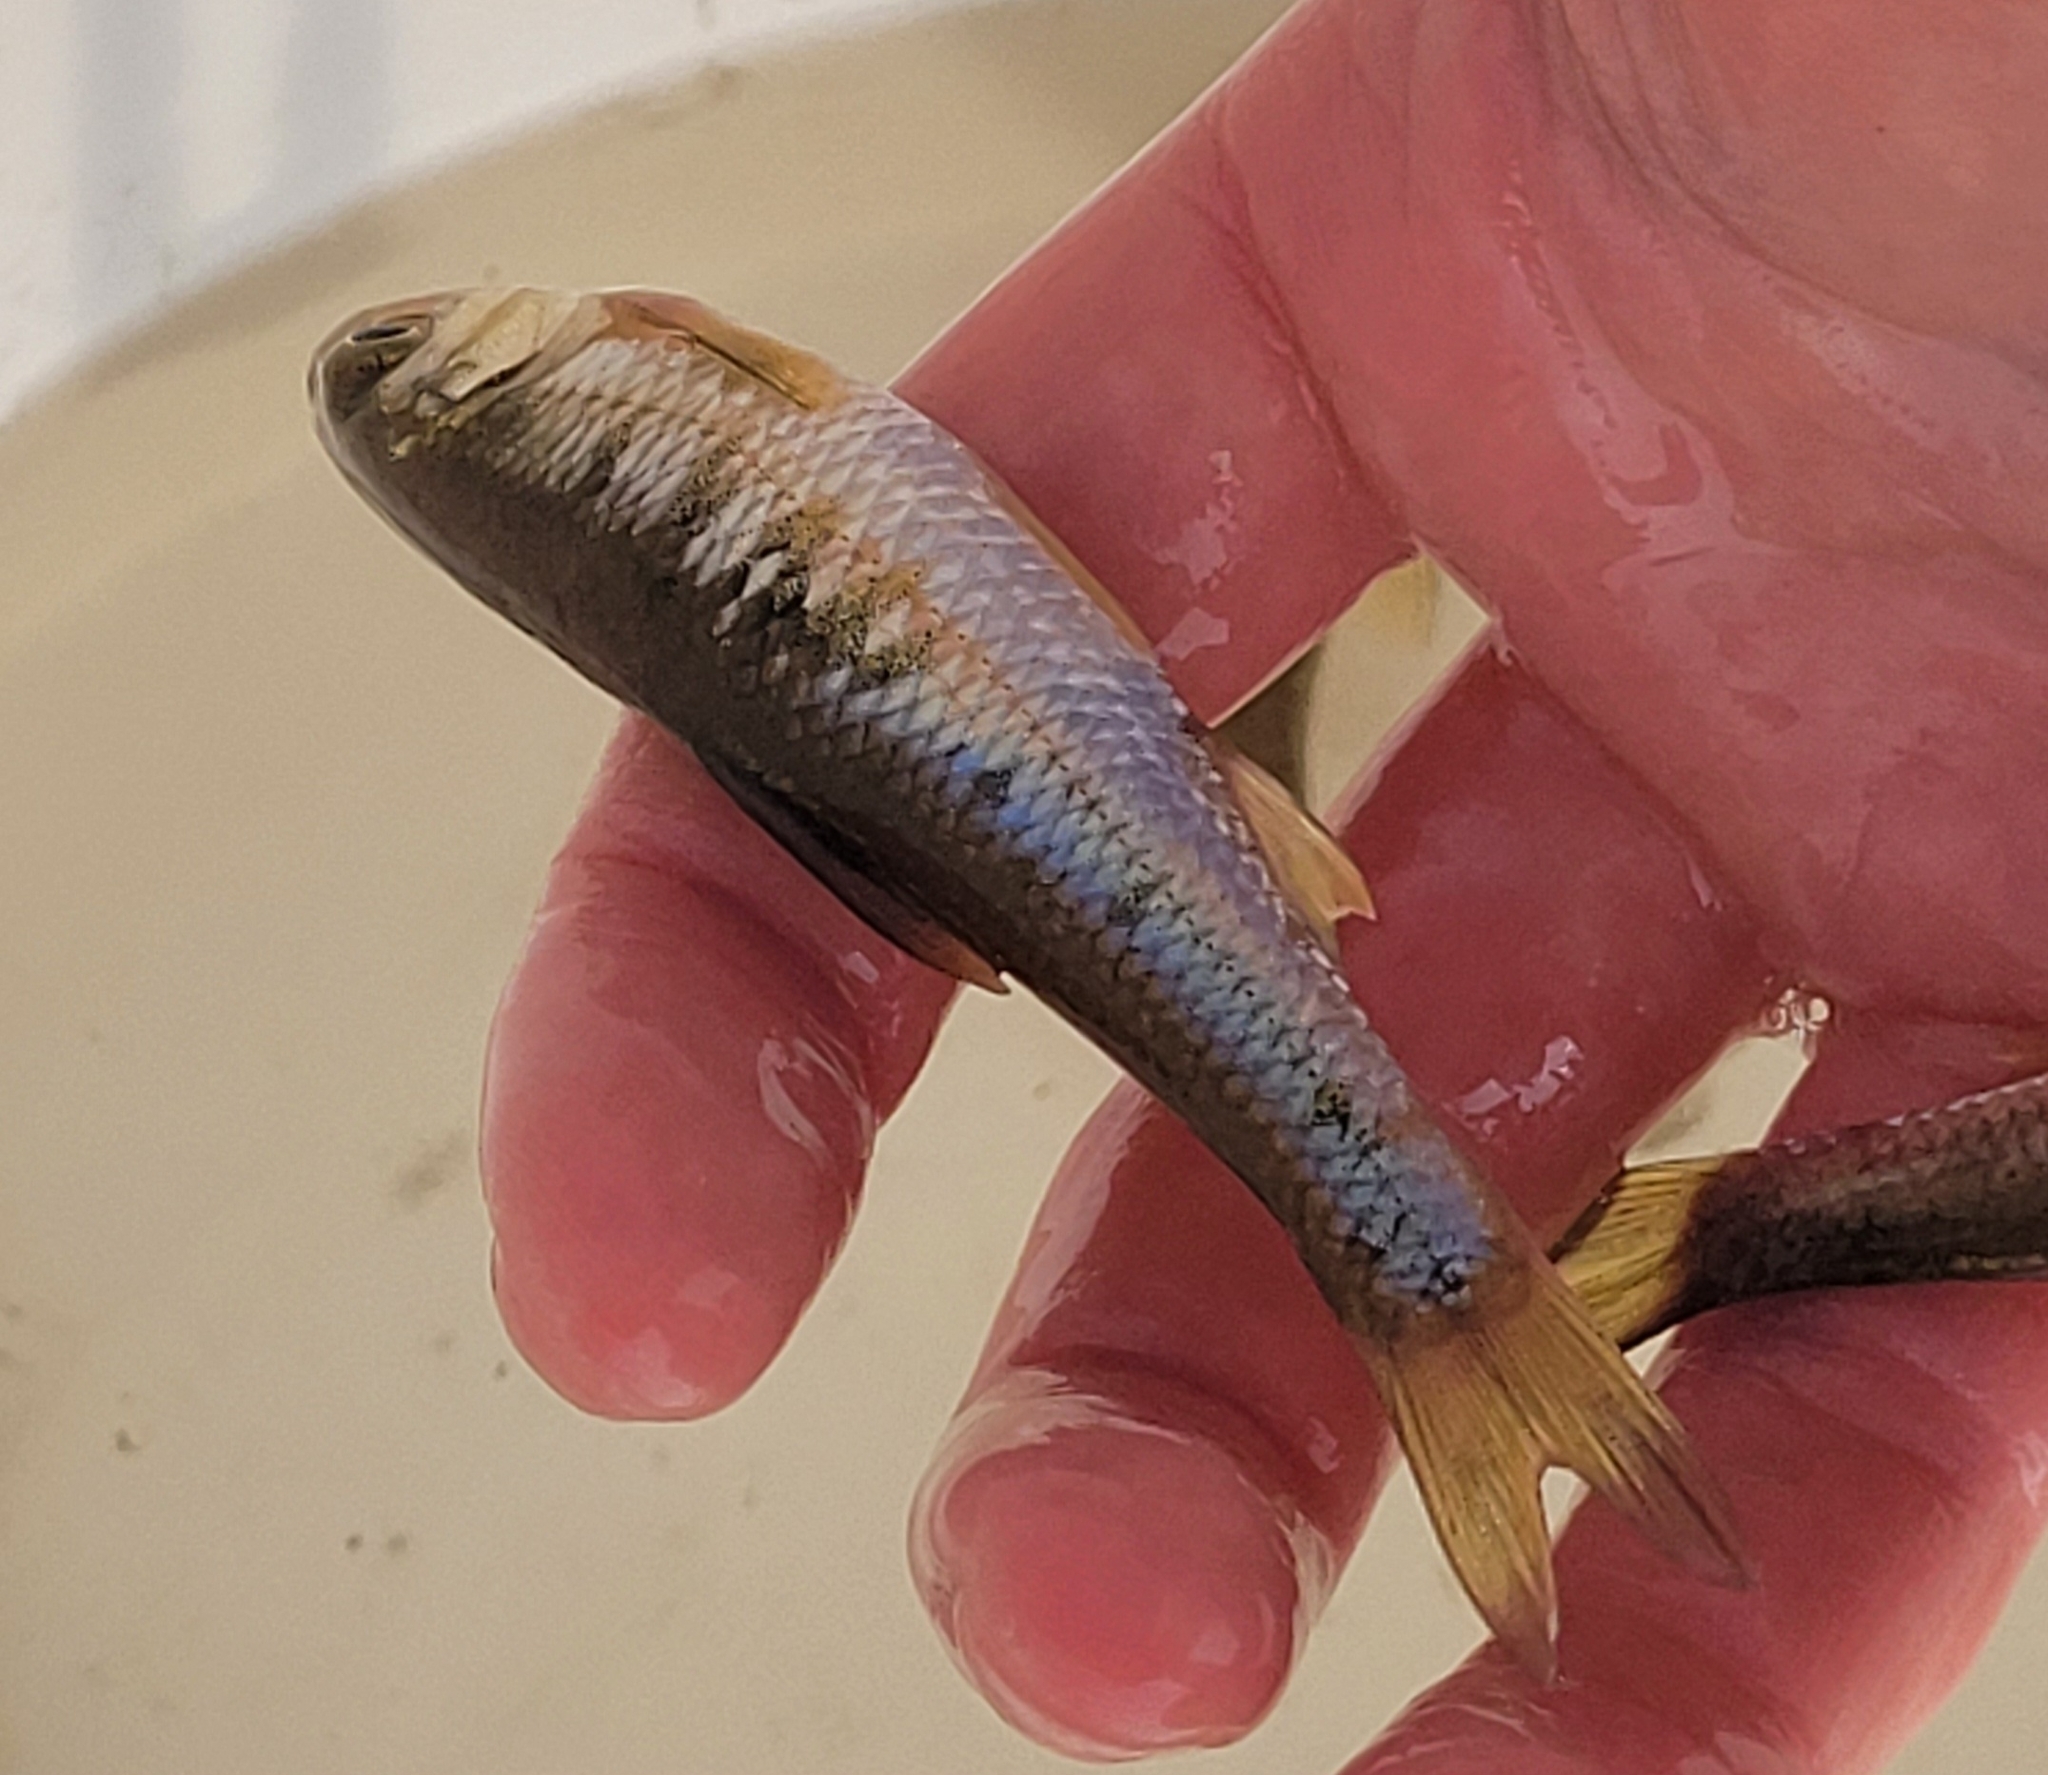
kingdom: Animalia
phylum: Chordata
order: Cypriniformes
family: Cyprinidae
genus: Luxilus
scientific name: Luxilus cornutus
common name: Common shiner
